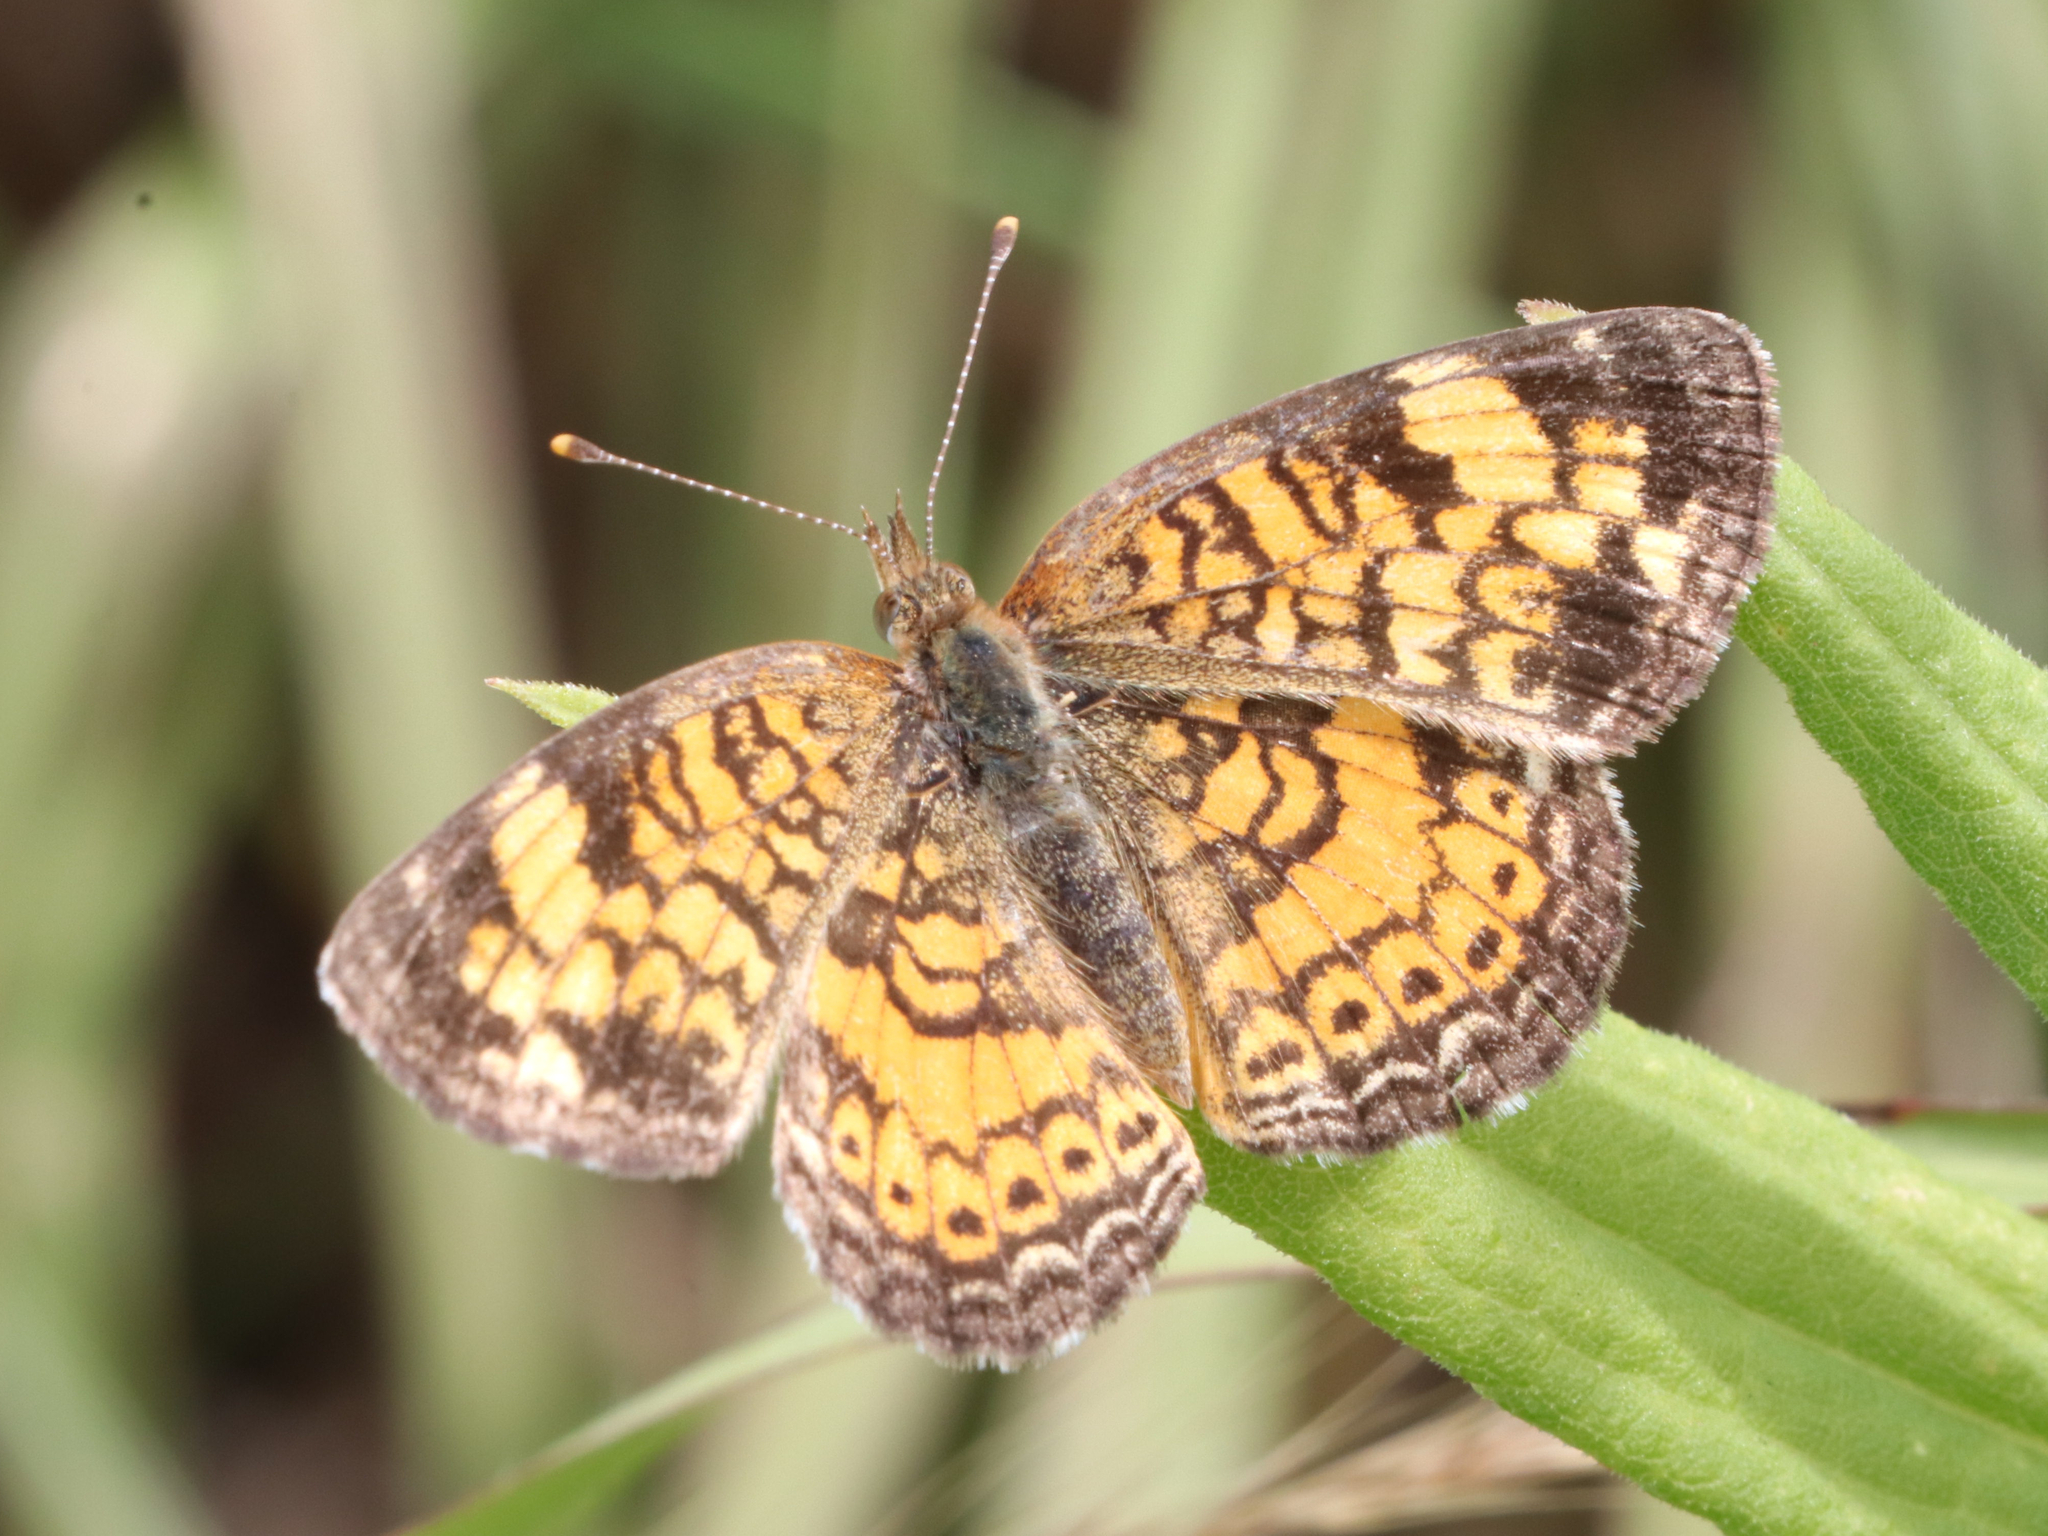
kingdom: Animalia
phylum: Arthropoda
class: Insecta
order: Lepidoptera
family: Nymphalidae
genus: Phyciodes
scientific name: Phyciodes tharos
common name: Pearl crescent
